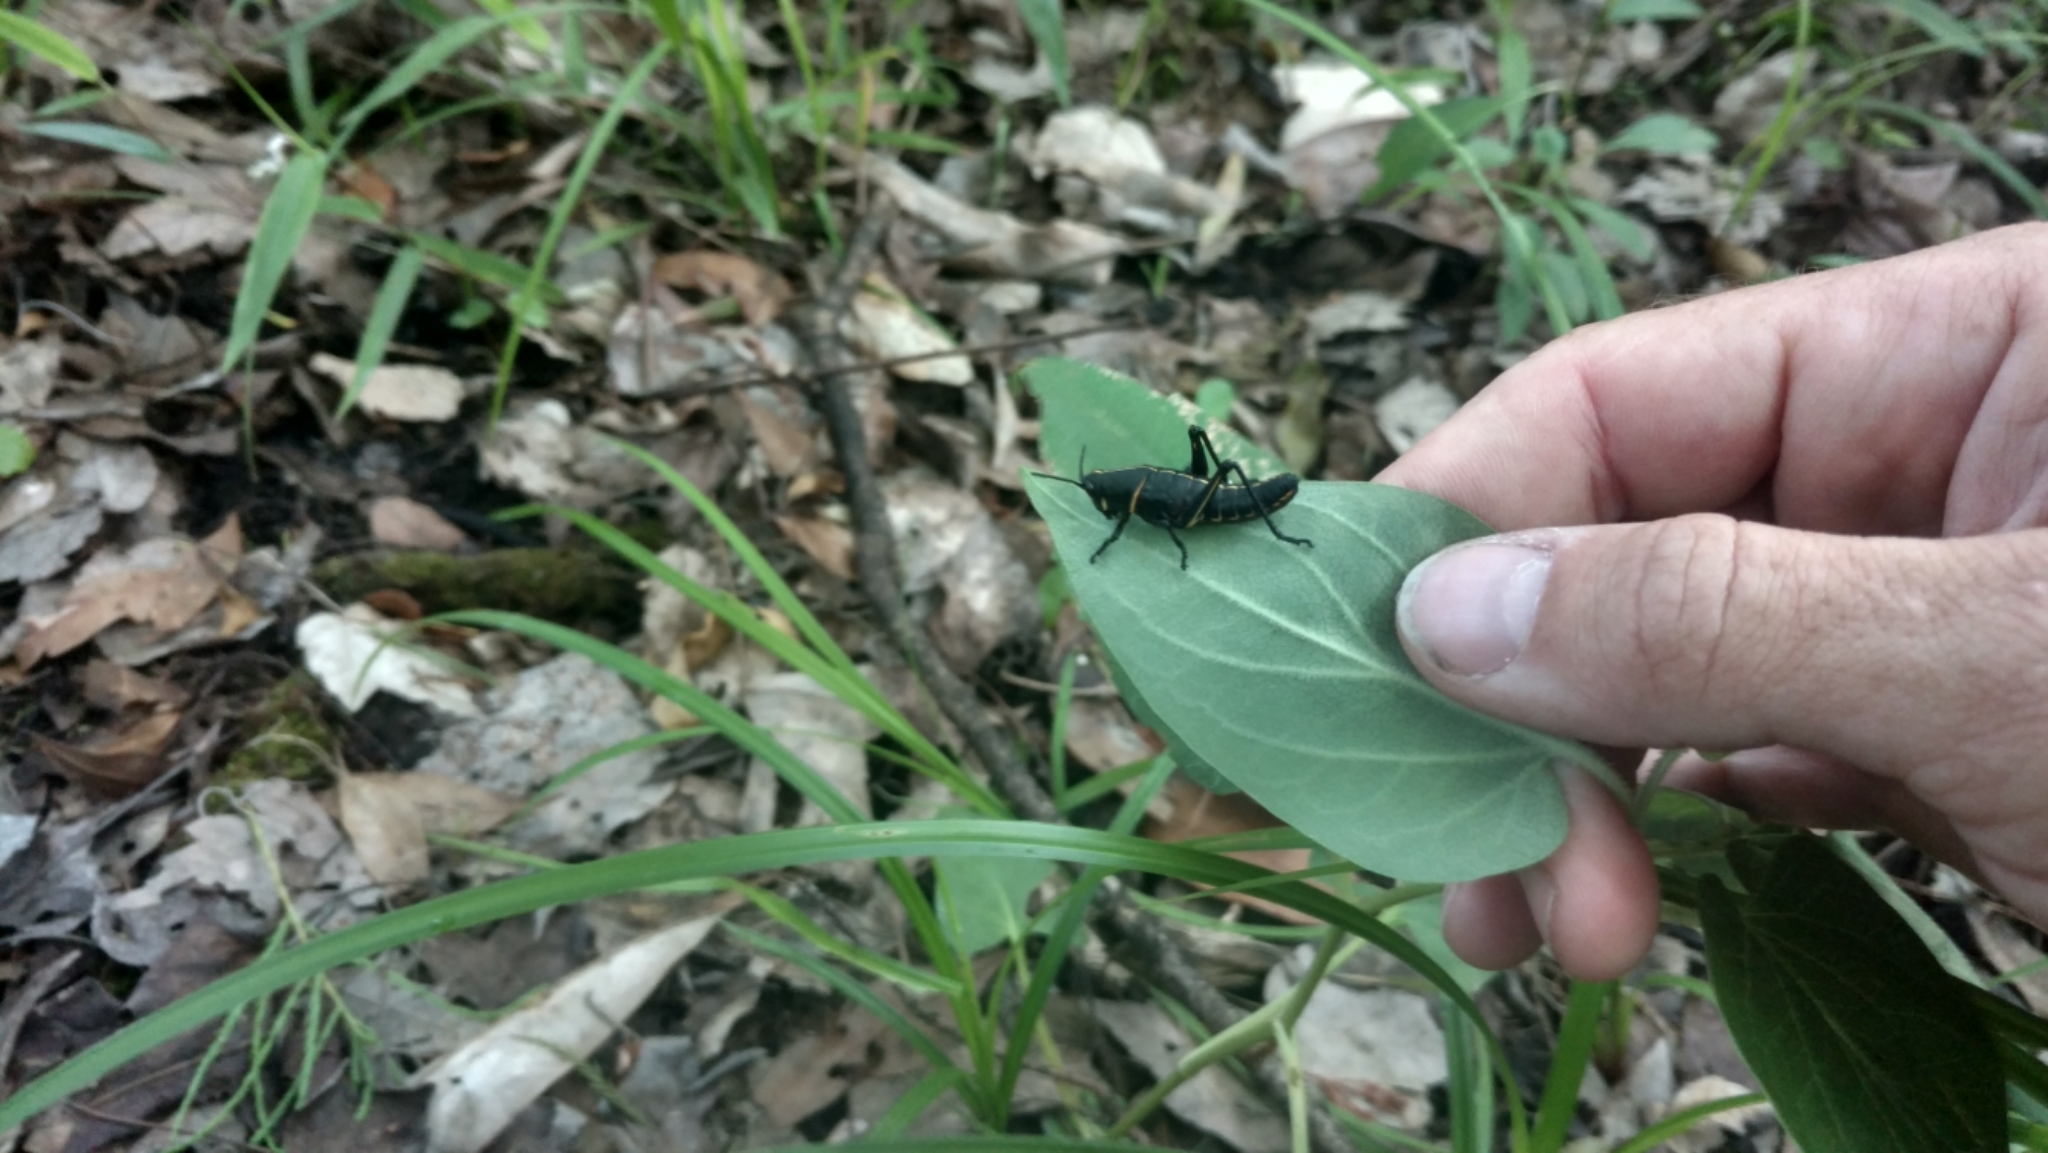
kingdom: Animalia
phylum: Arthropoda
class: Insecta
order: Orthoptera
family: Romaleidae
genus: Romalea
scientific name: Romalea microptera
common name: Eastern lubber grasshopper
